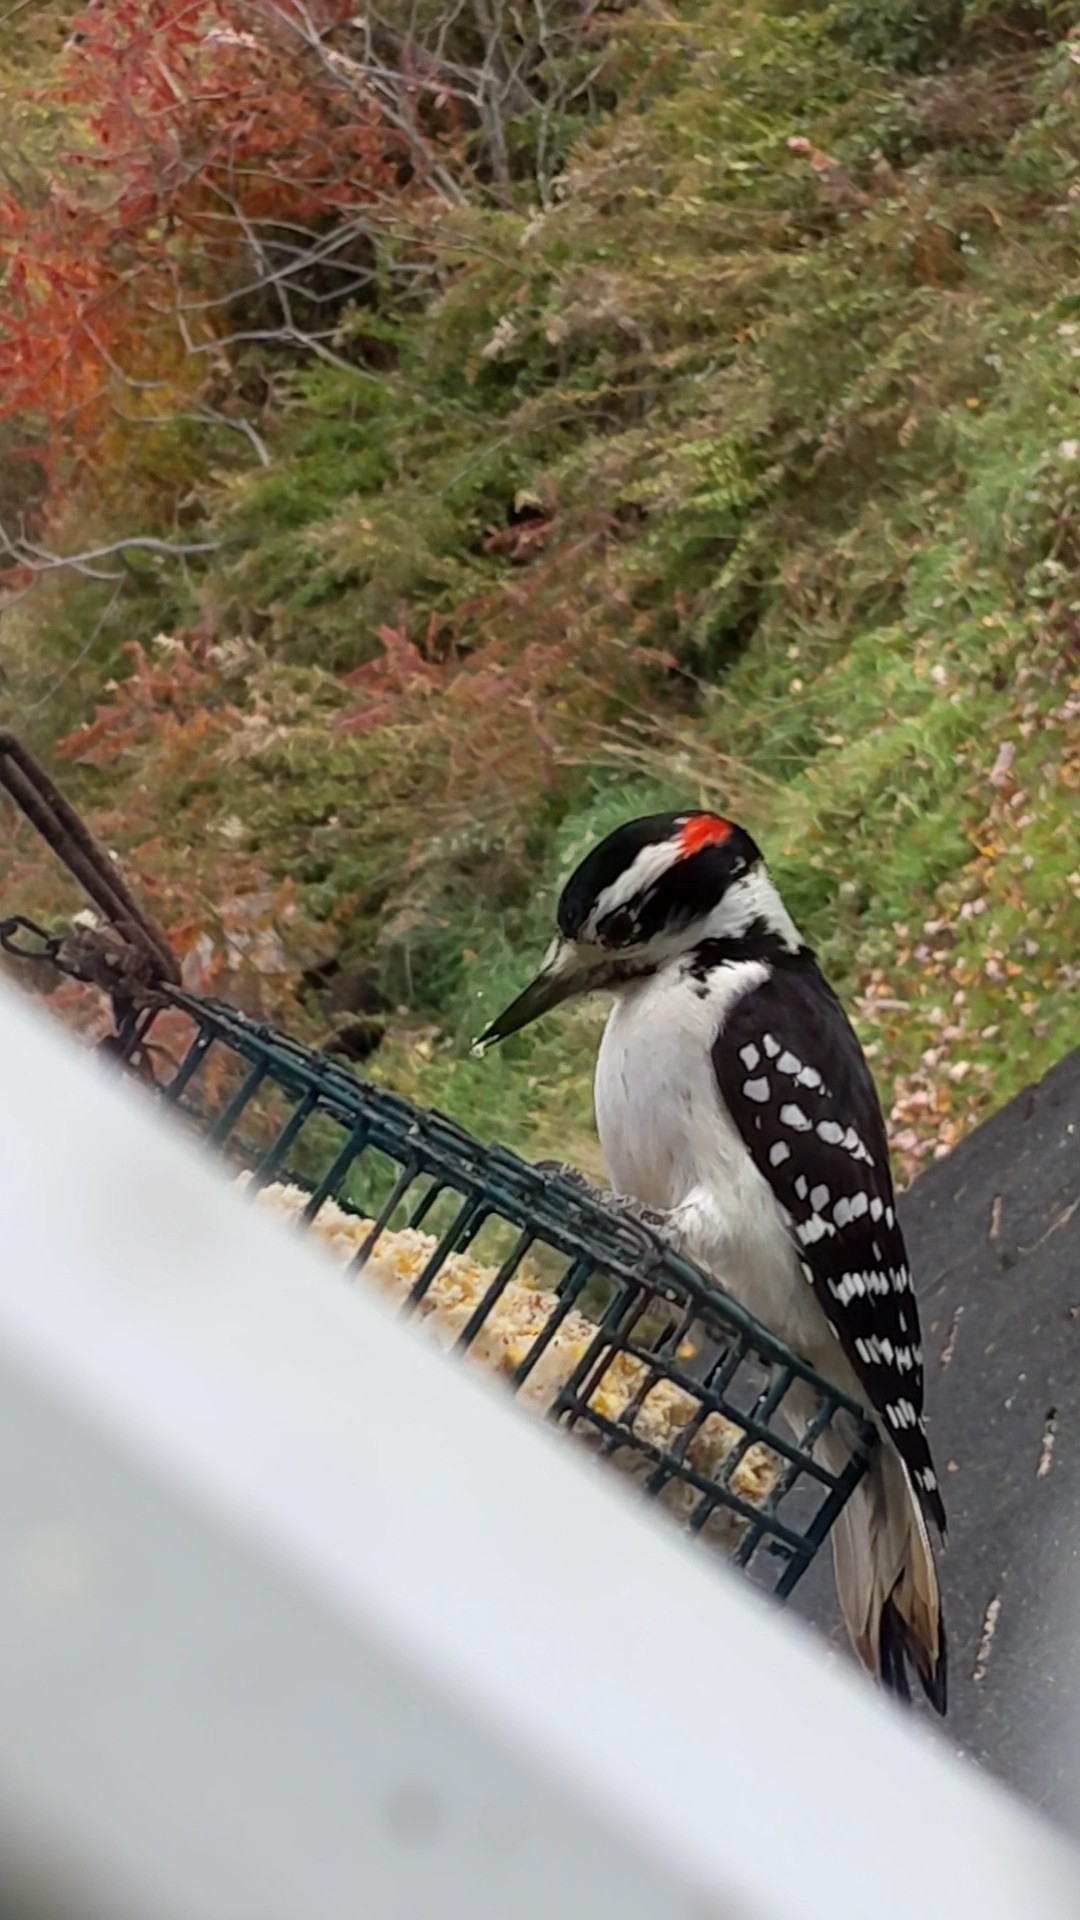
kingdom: Animalia
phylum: Chordata
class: Aves
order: Piciformes
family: Picidae
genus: Leuconotopicus
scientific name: Leuconotopicus villosus
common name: Hairy woodpecker
